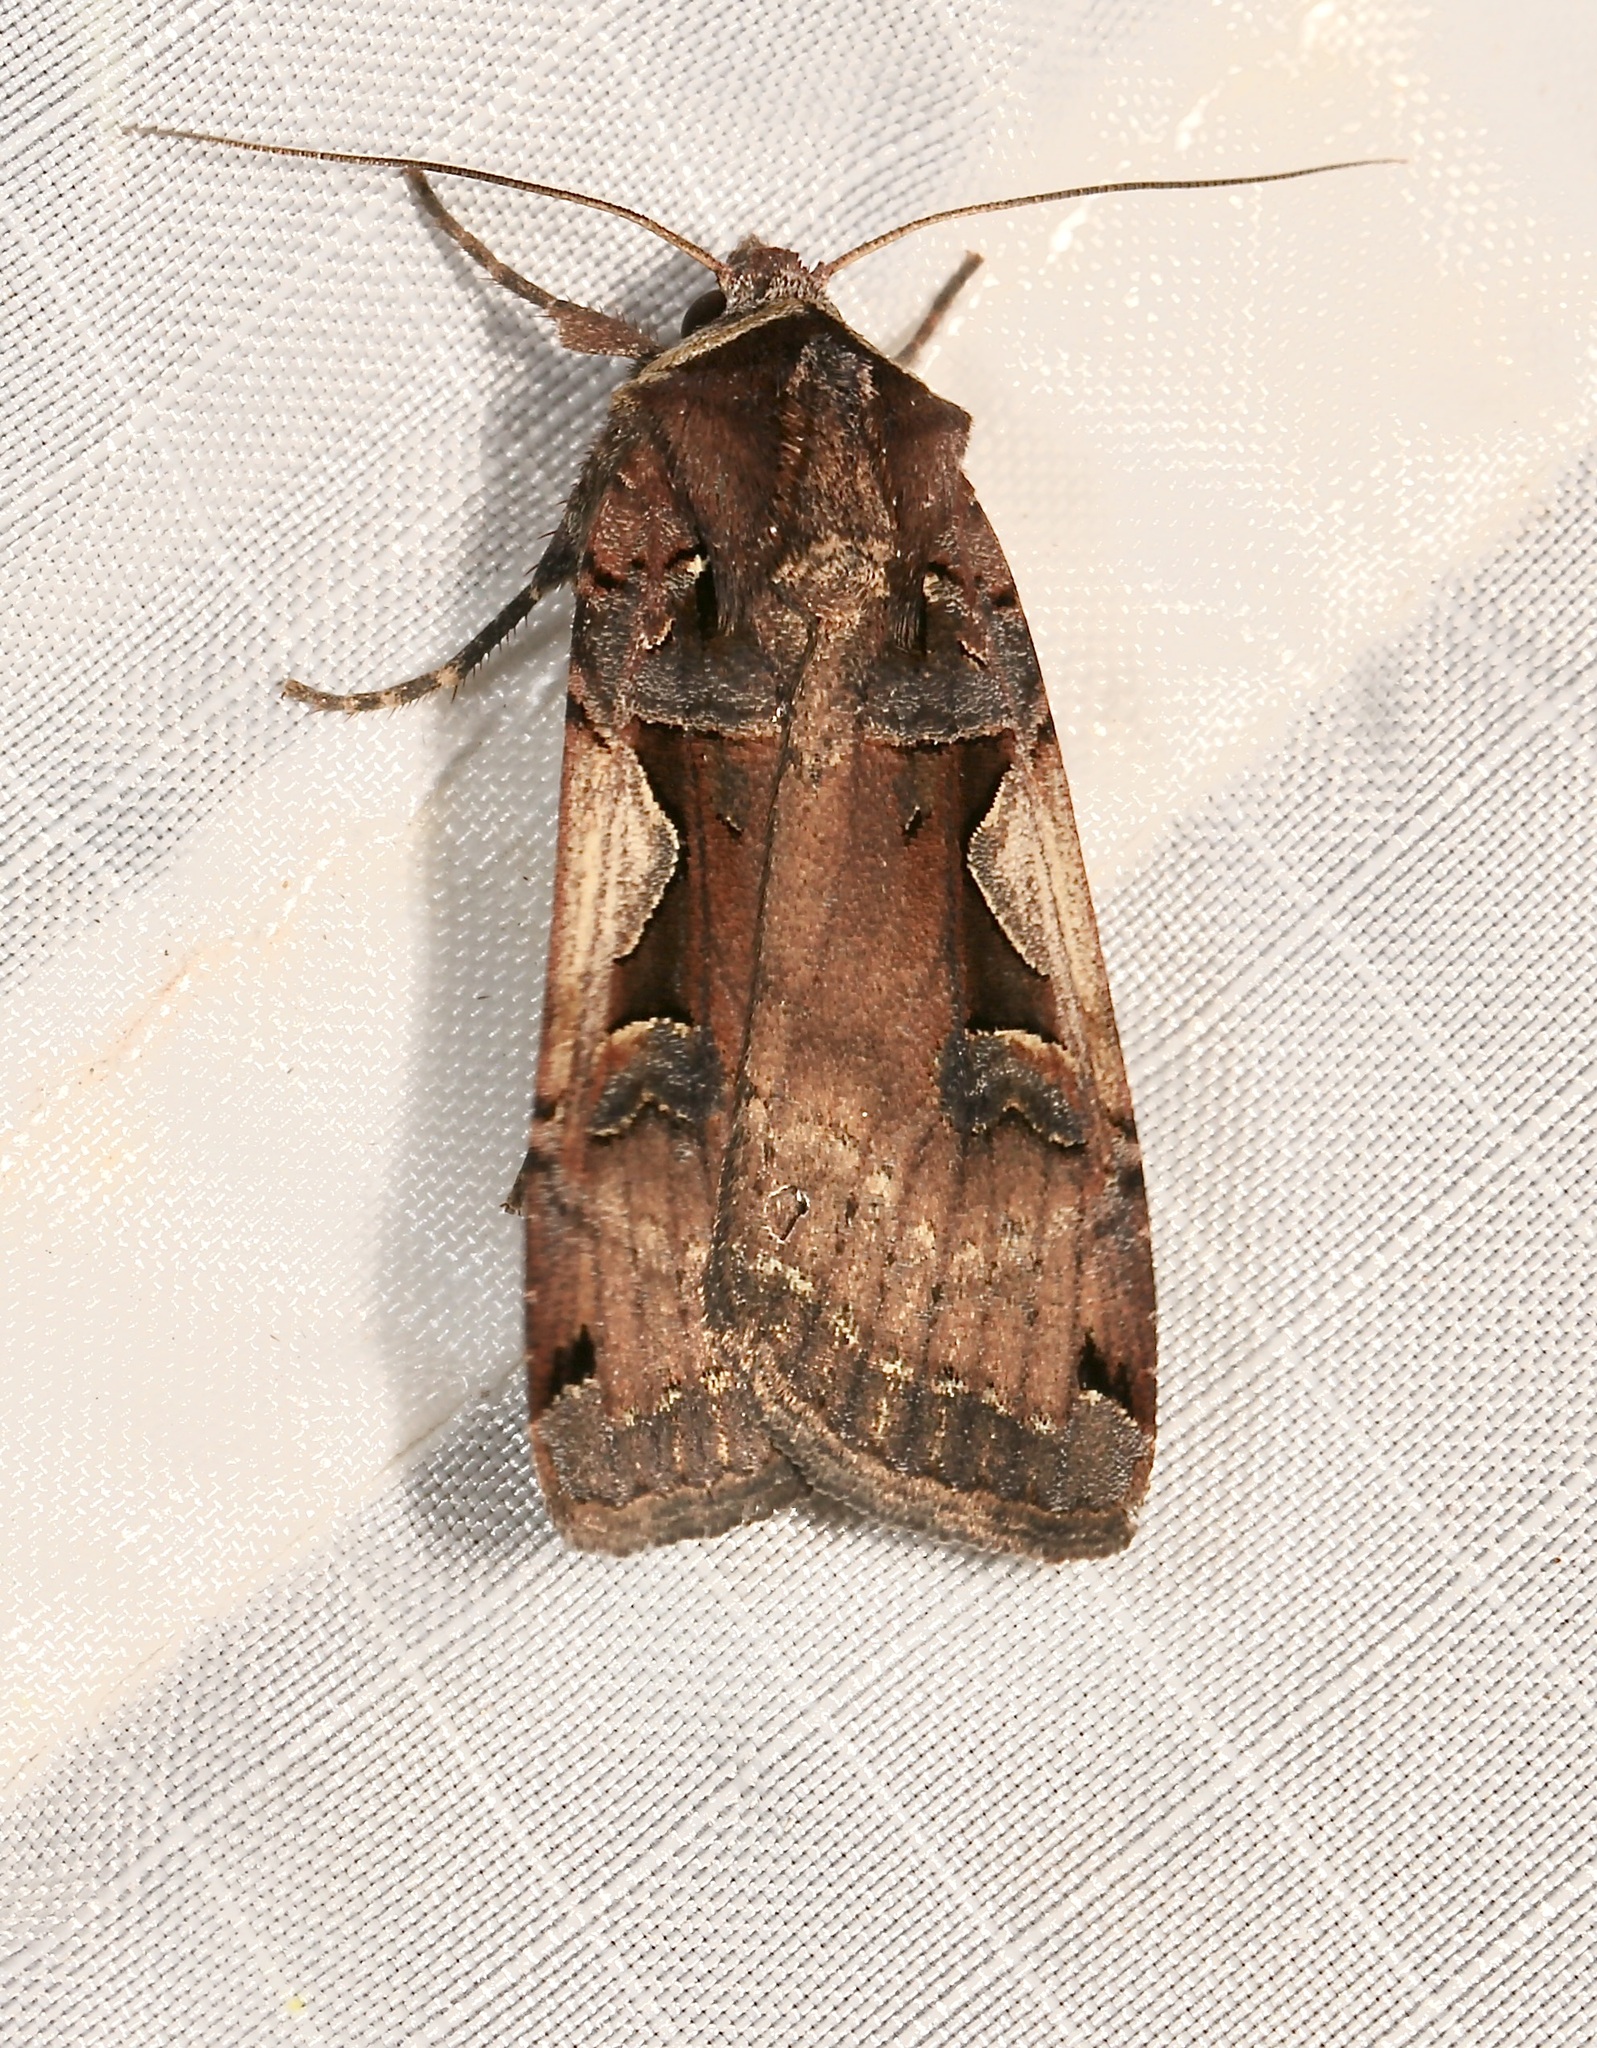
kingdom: Animalia
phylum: Arthropoda
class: Insecta
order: Lepidoptera
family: Noctuidae
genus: Xestia
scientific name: Xestia c-nigrum
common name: Setaceous hebrew character
